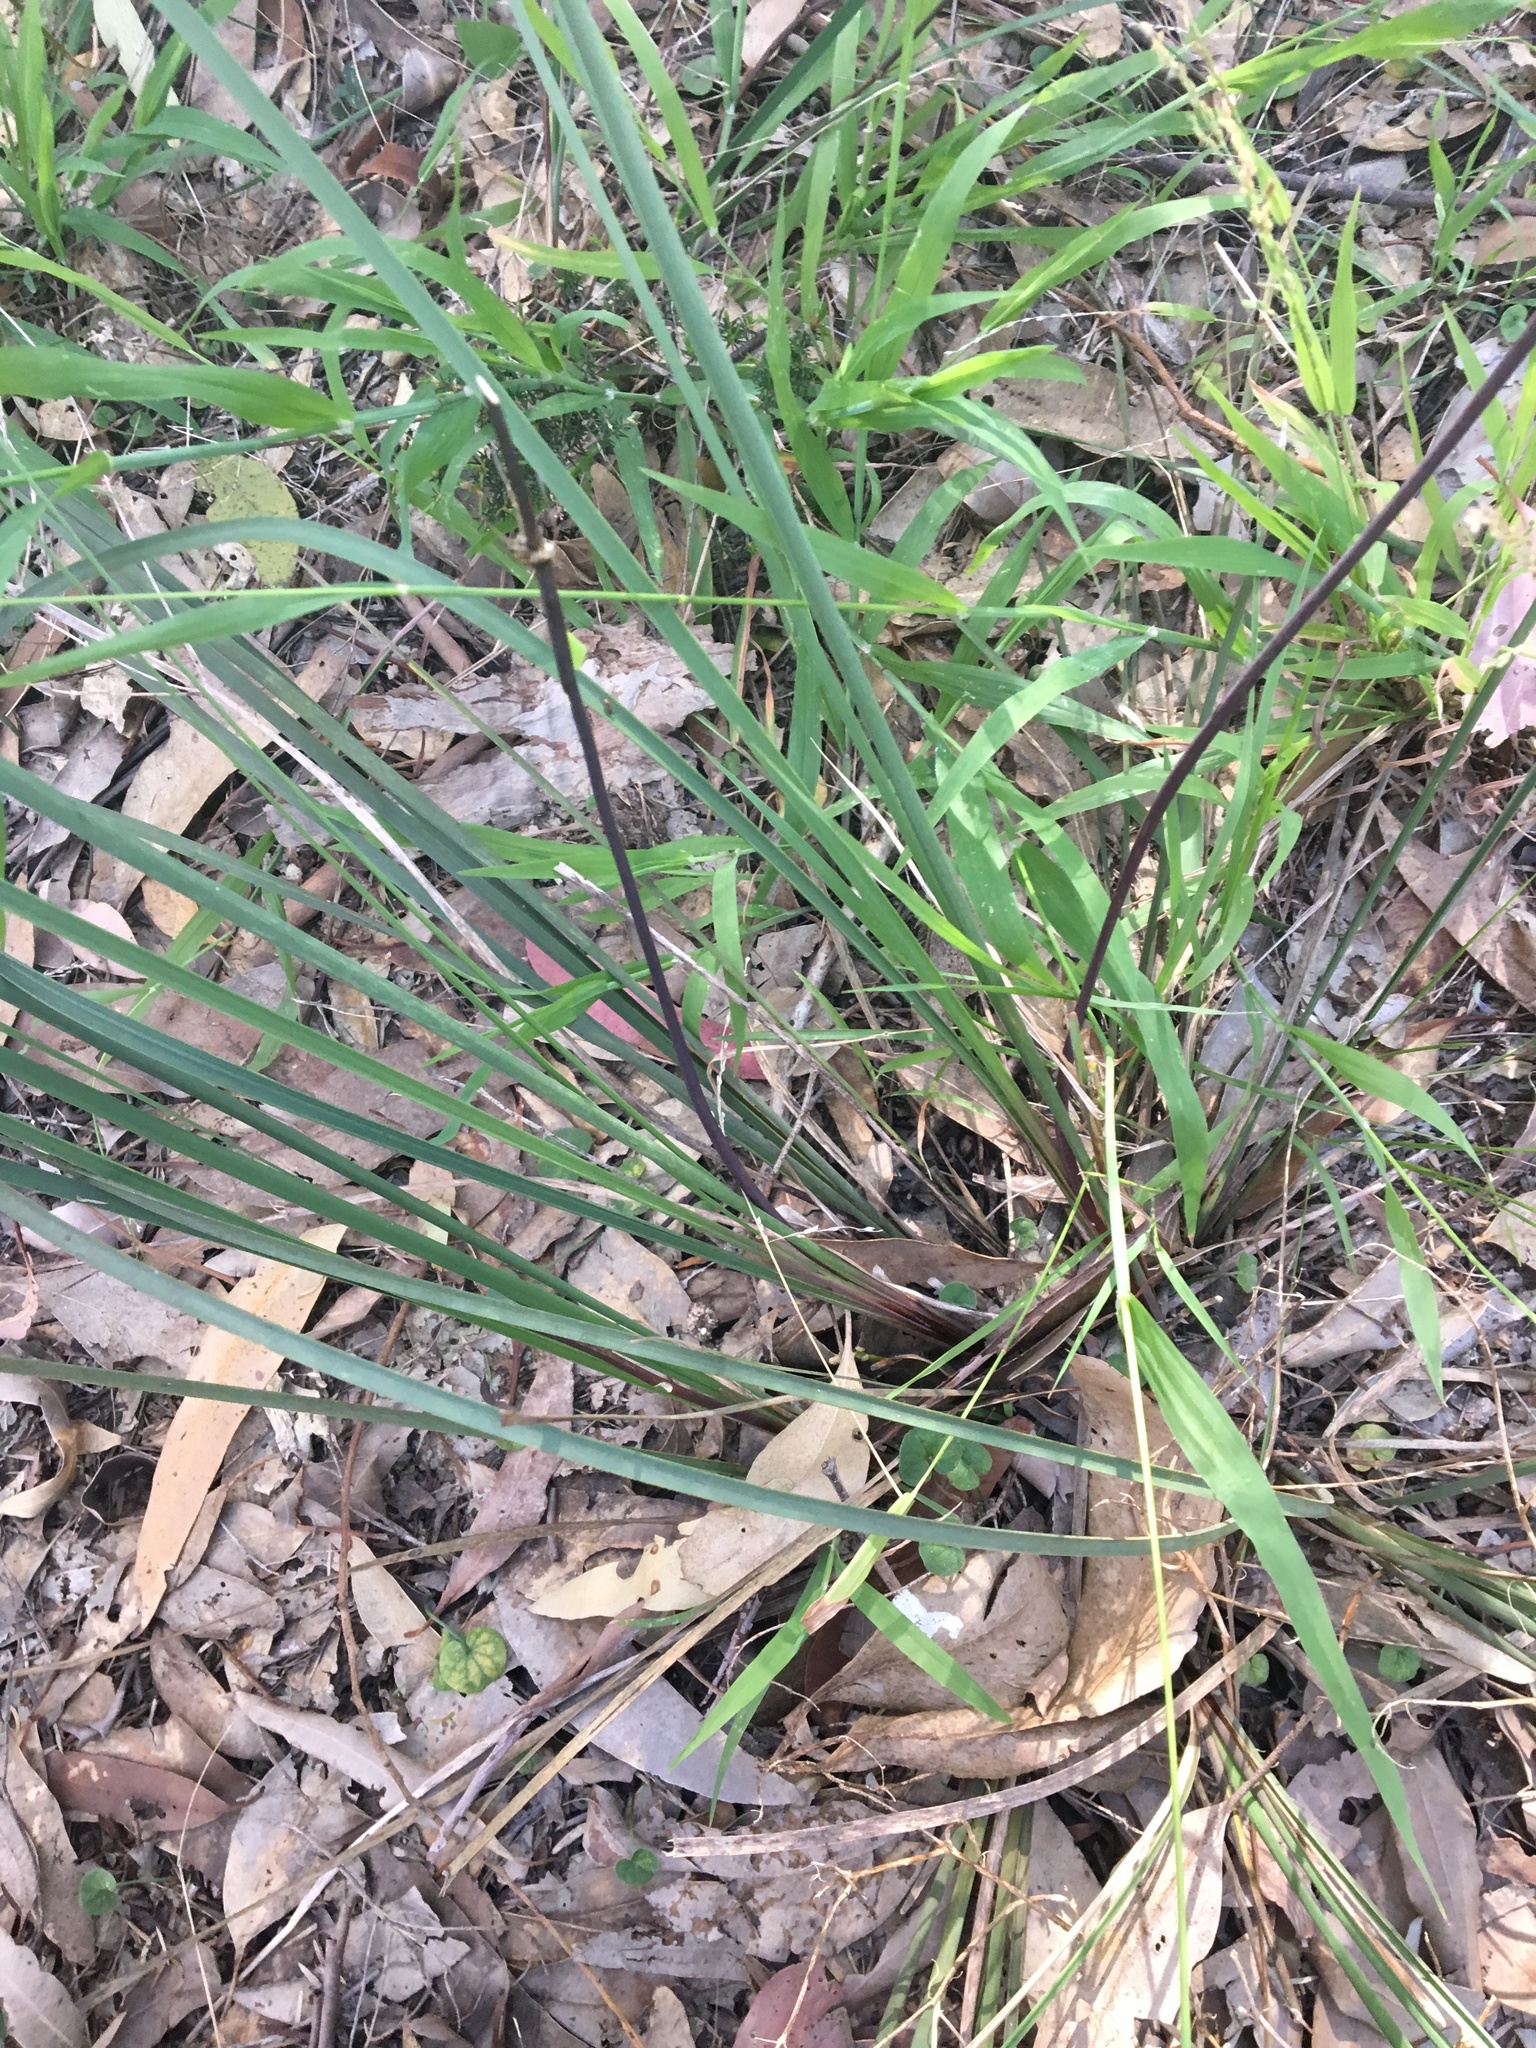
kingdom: Plantae
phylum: Tracheophyta
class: Liliopsida
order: Asparagales
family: Asparagaceae
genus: Lomandra
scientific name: Lomandra multiflora
